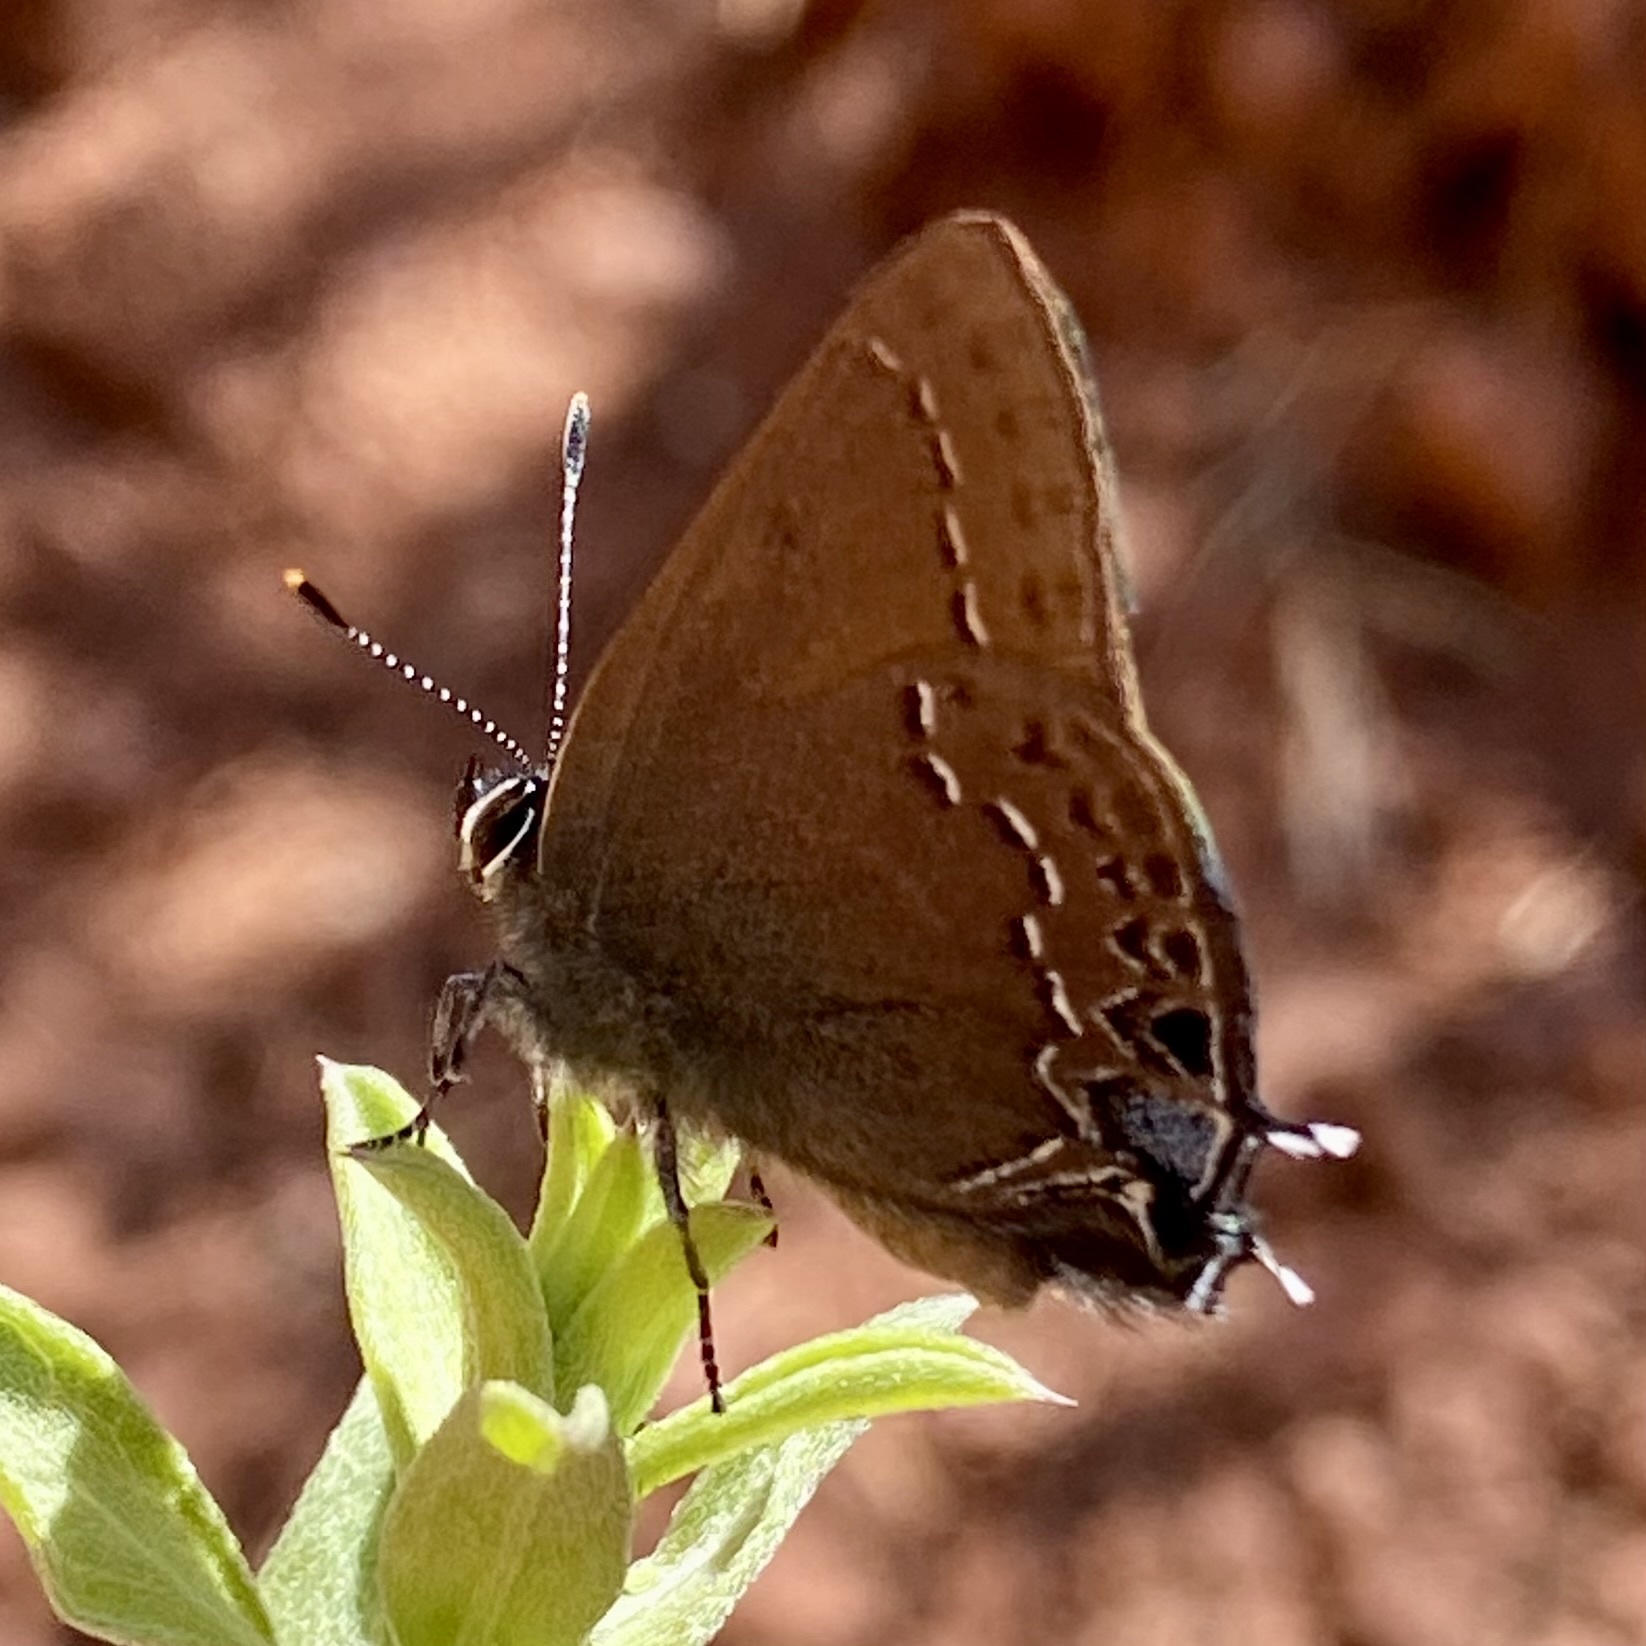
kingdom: Animalia
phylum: Arthropoda
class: Insecta
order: Lepidoptera
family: Lycaenidae
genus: Strymon
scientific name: Strymon saepium
